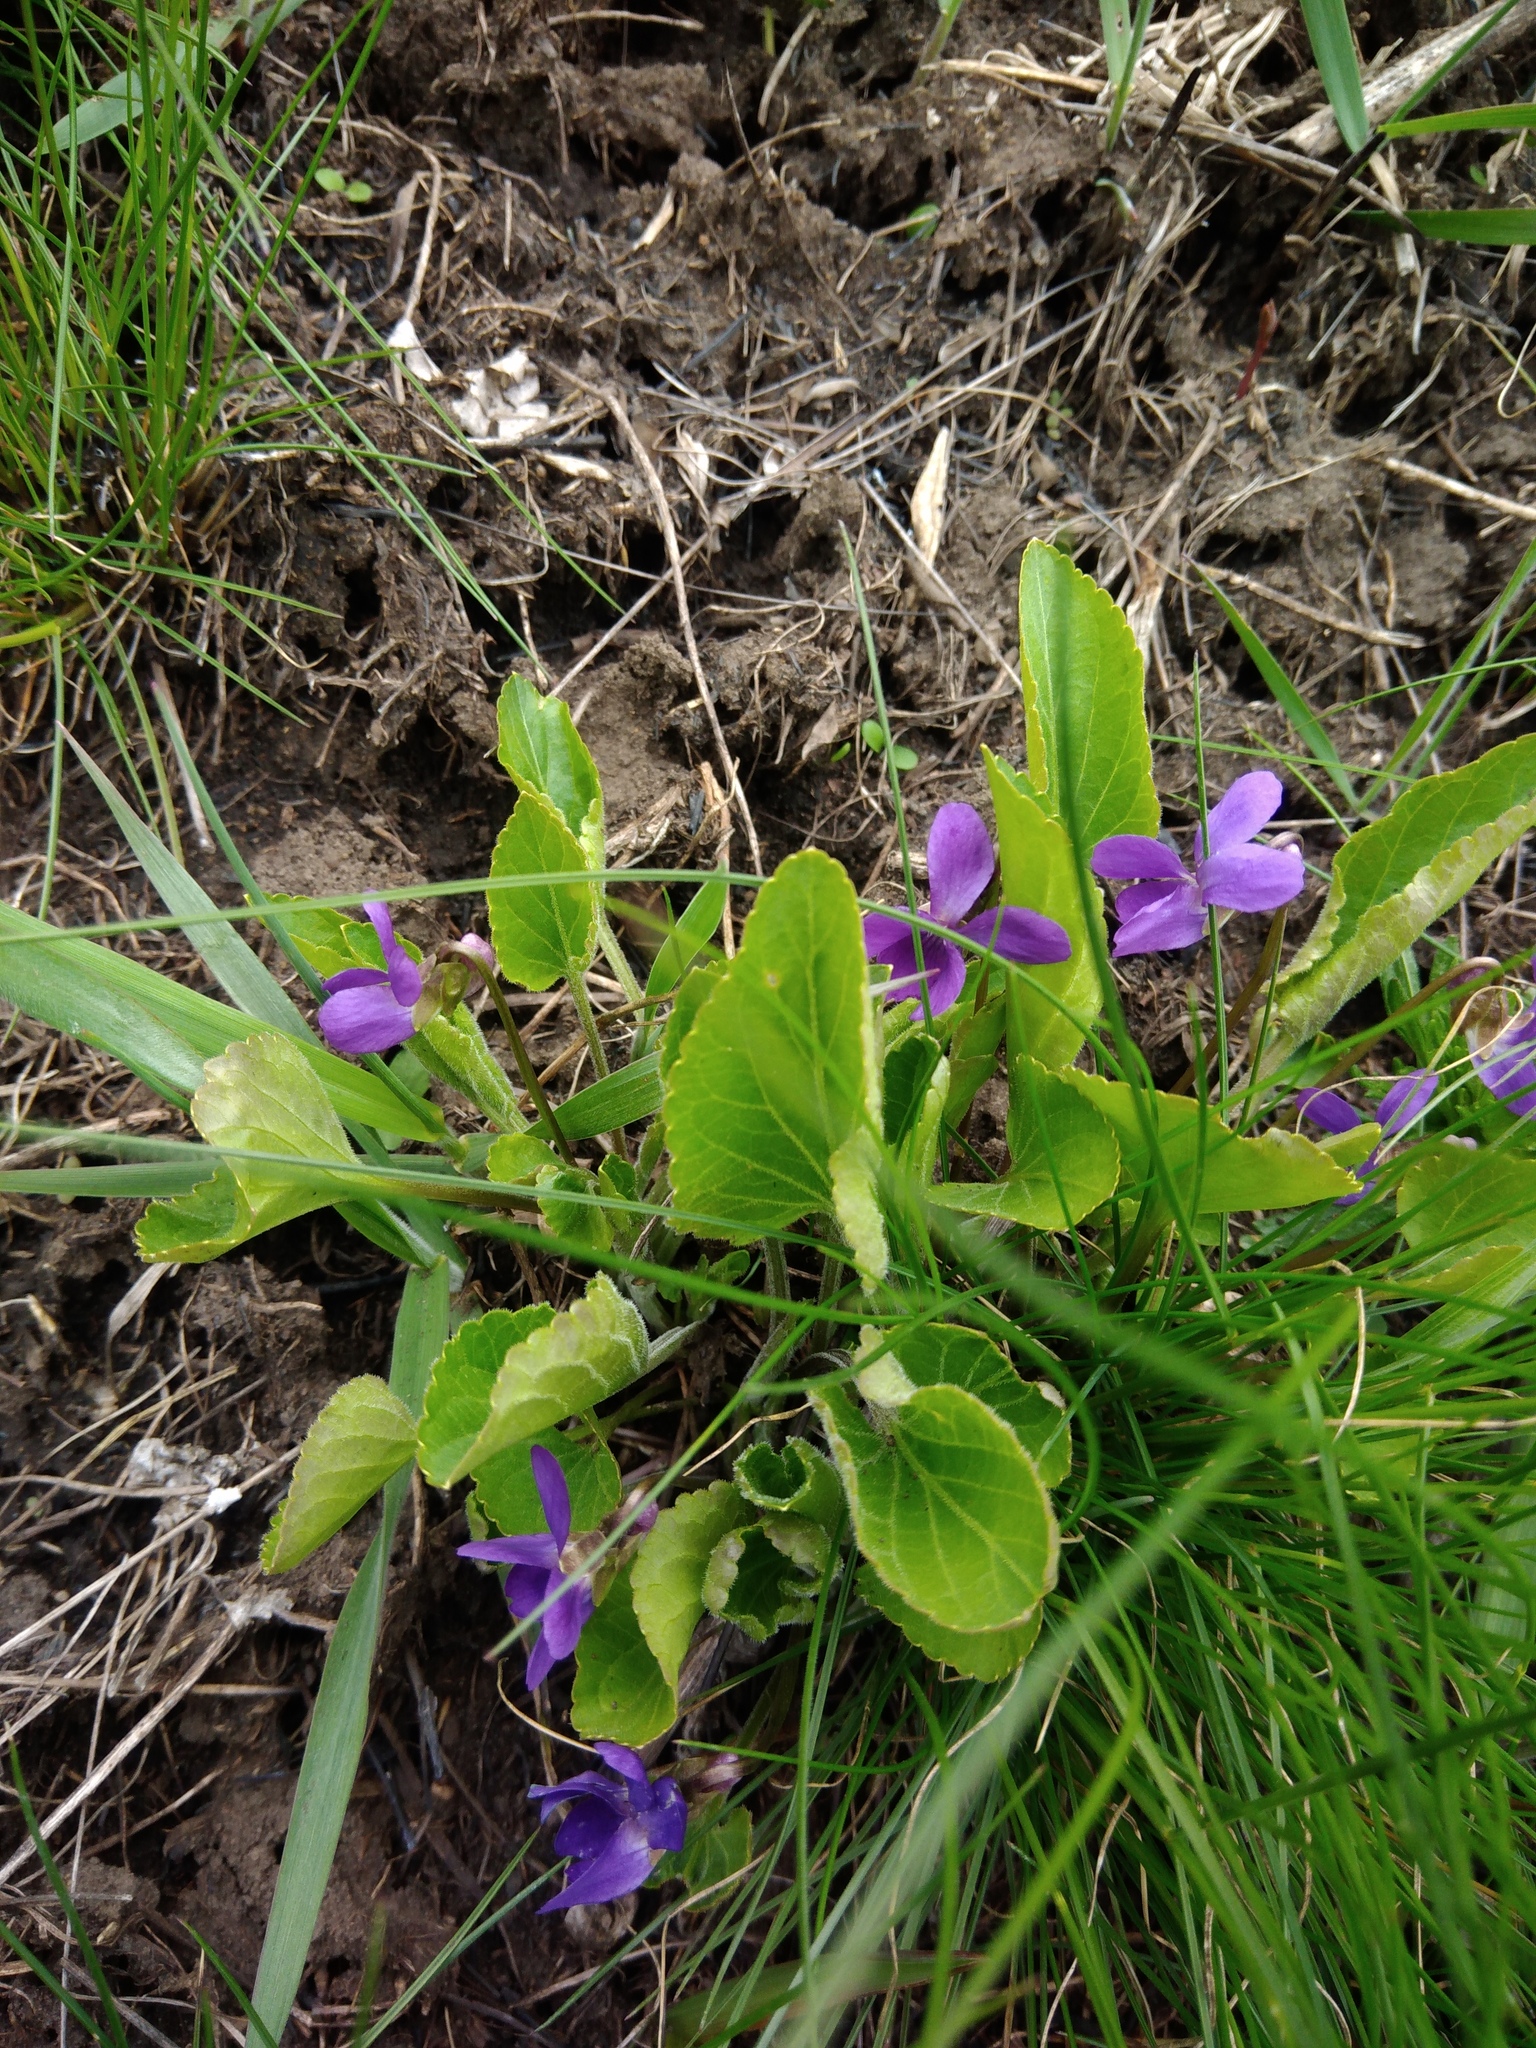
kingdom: Plantae
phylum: Tracheophyta
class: Magnoliopsida
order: Malpighiales
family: Violaceae
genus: Viola
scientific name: Viola hirta
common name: Hairy violet
